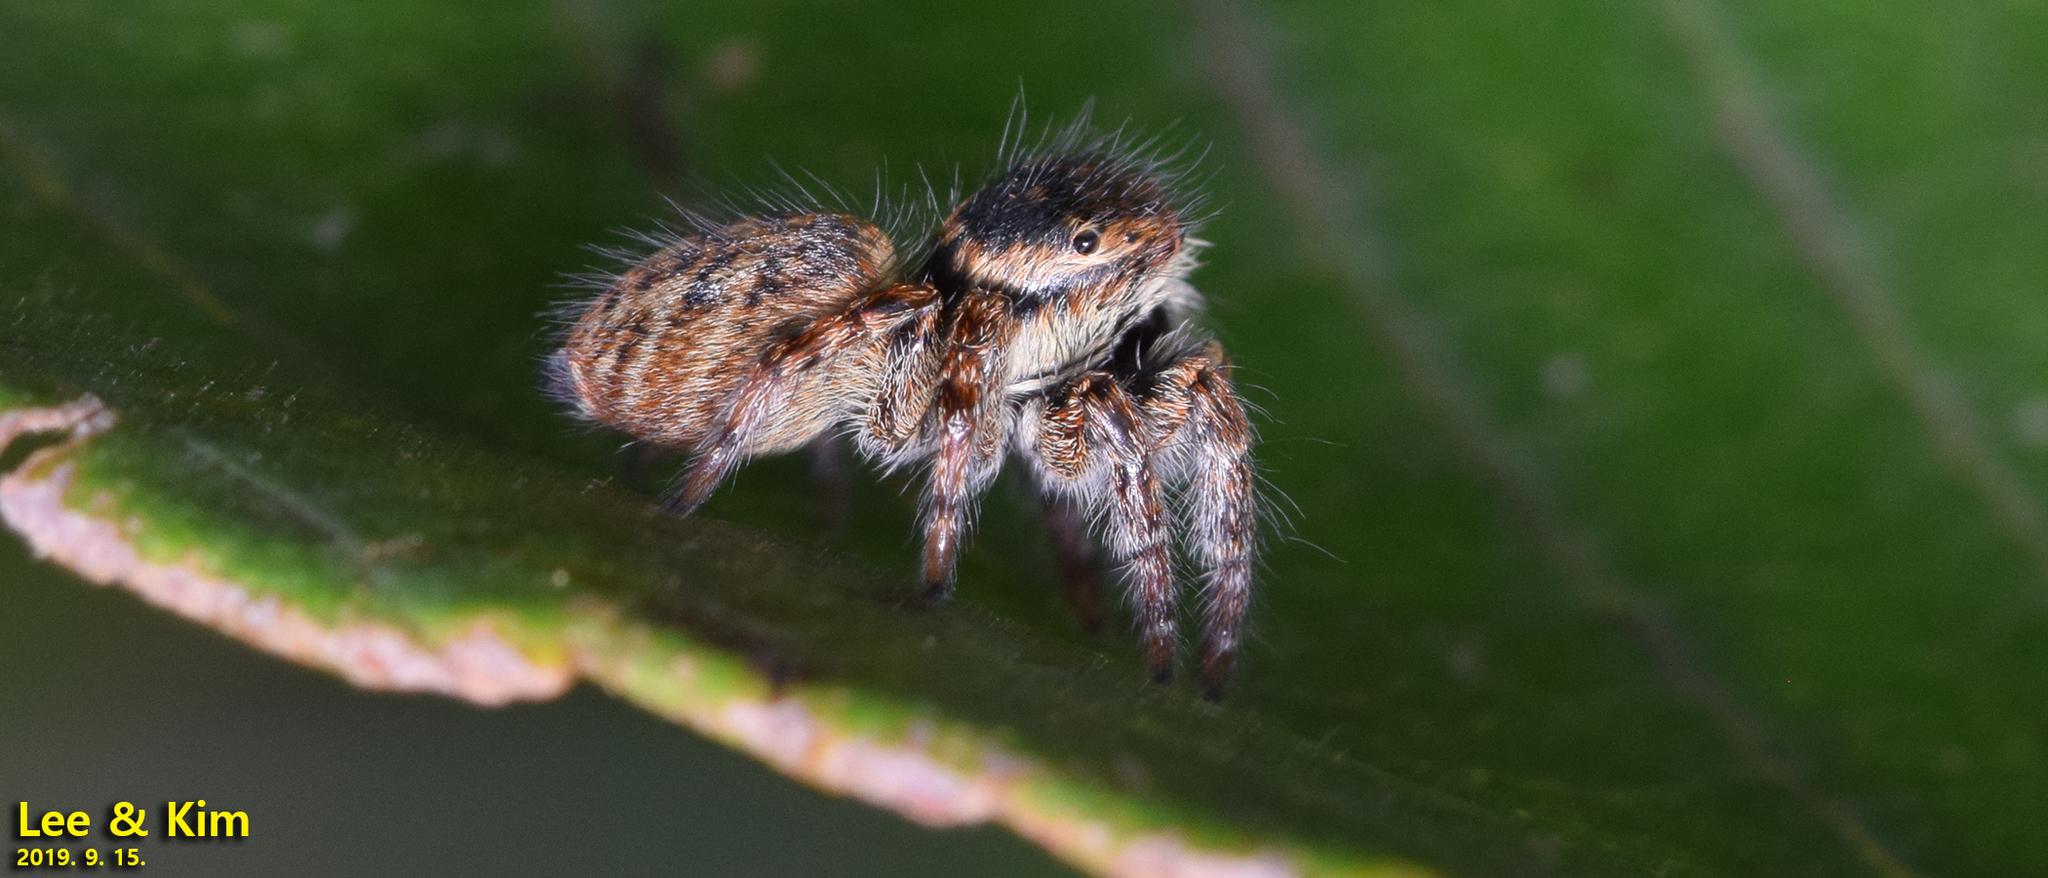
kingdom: Animalia
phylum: Arthropoda
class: Arachnida
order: Araneae
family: Salticidae
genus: Carrhotus
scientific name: Carrhotus xanthogramma
